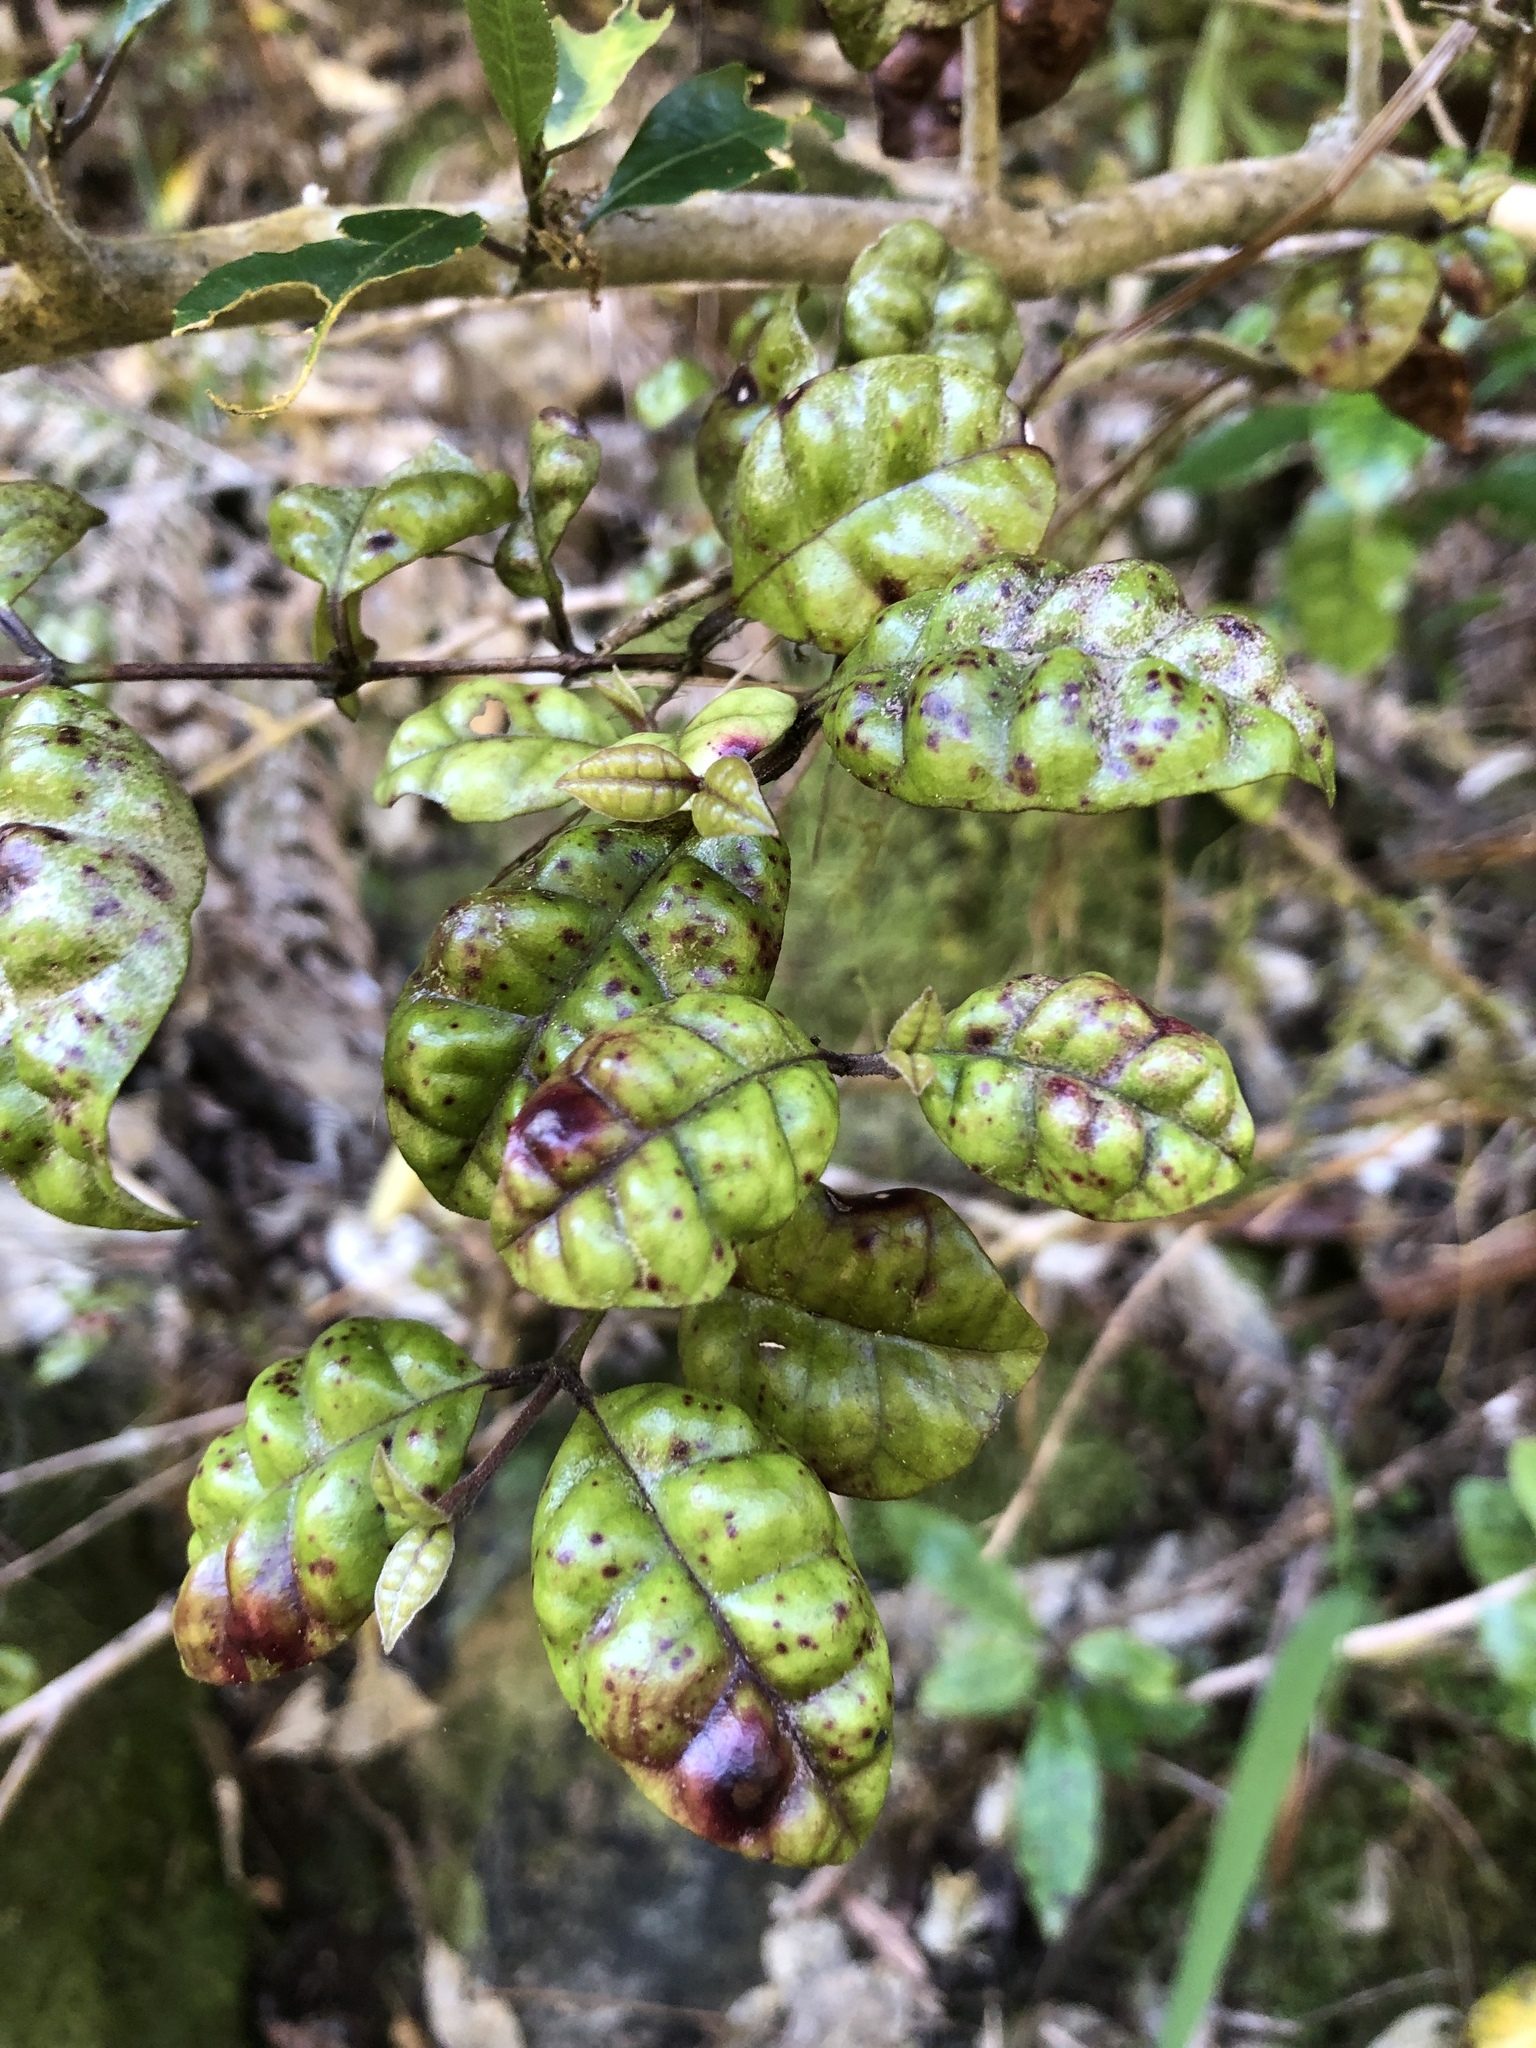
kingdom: Plantae
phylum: Tracheophyta
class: Magnoliopsida
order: Myrtales
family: Myrtaceae
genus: Lophomyrtus
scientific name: Lophomyrtus bullata
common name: Rama rama
